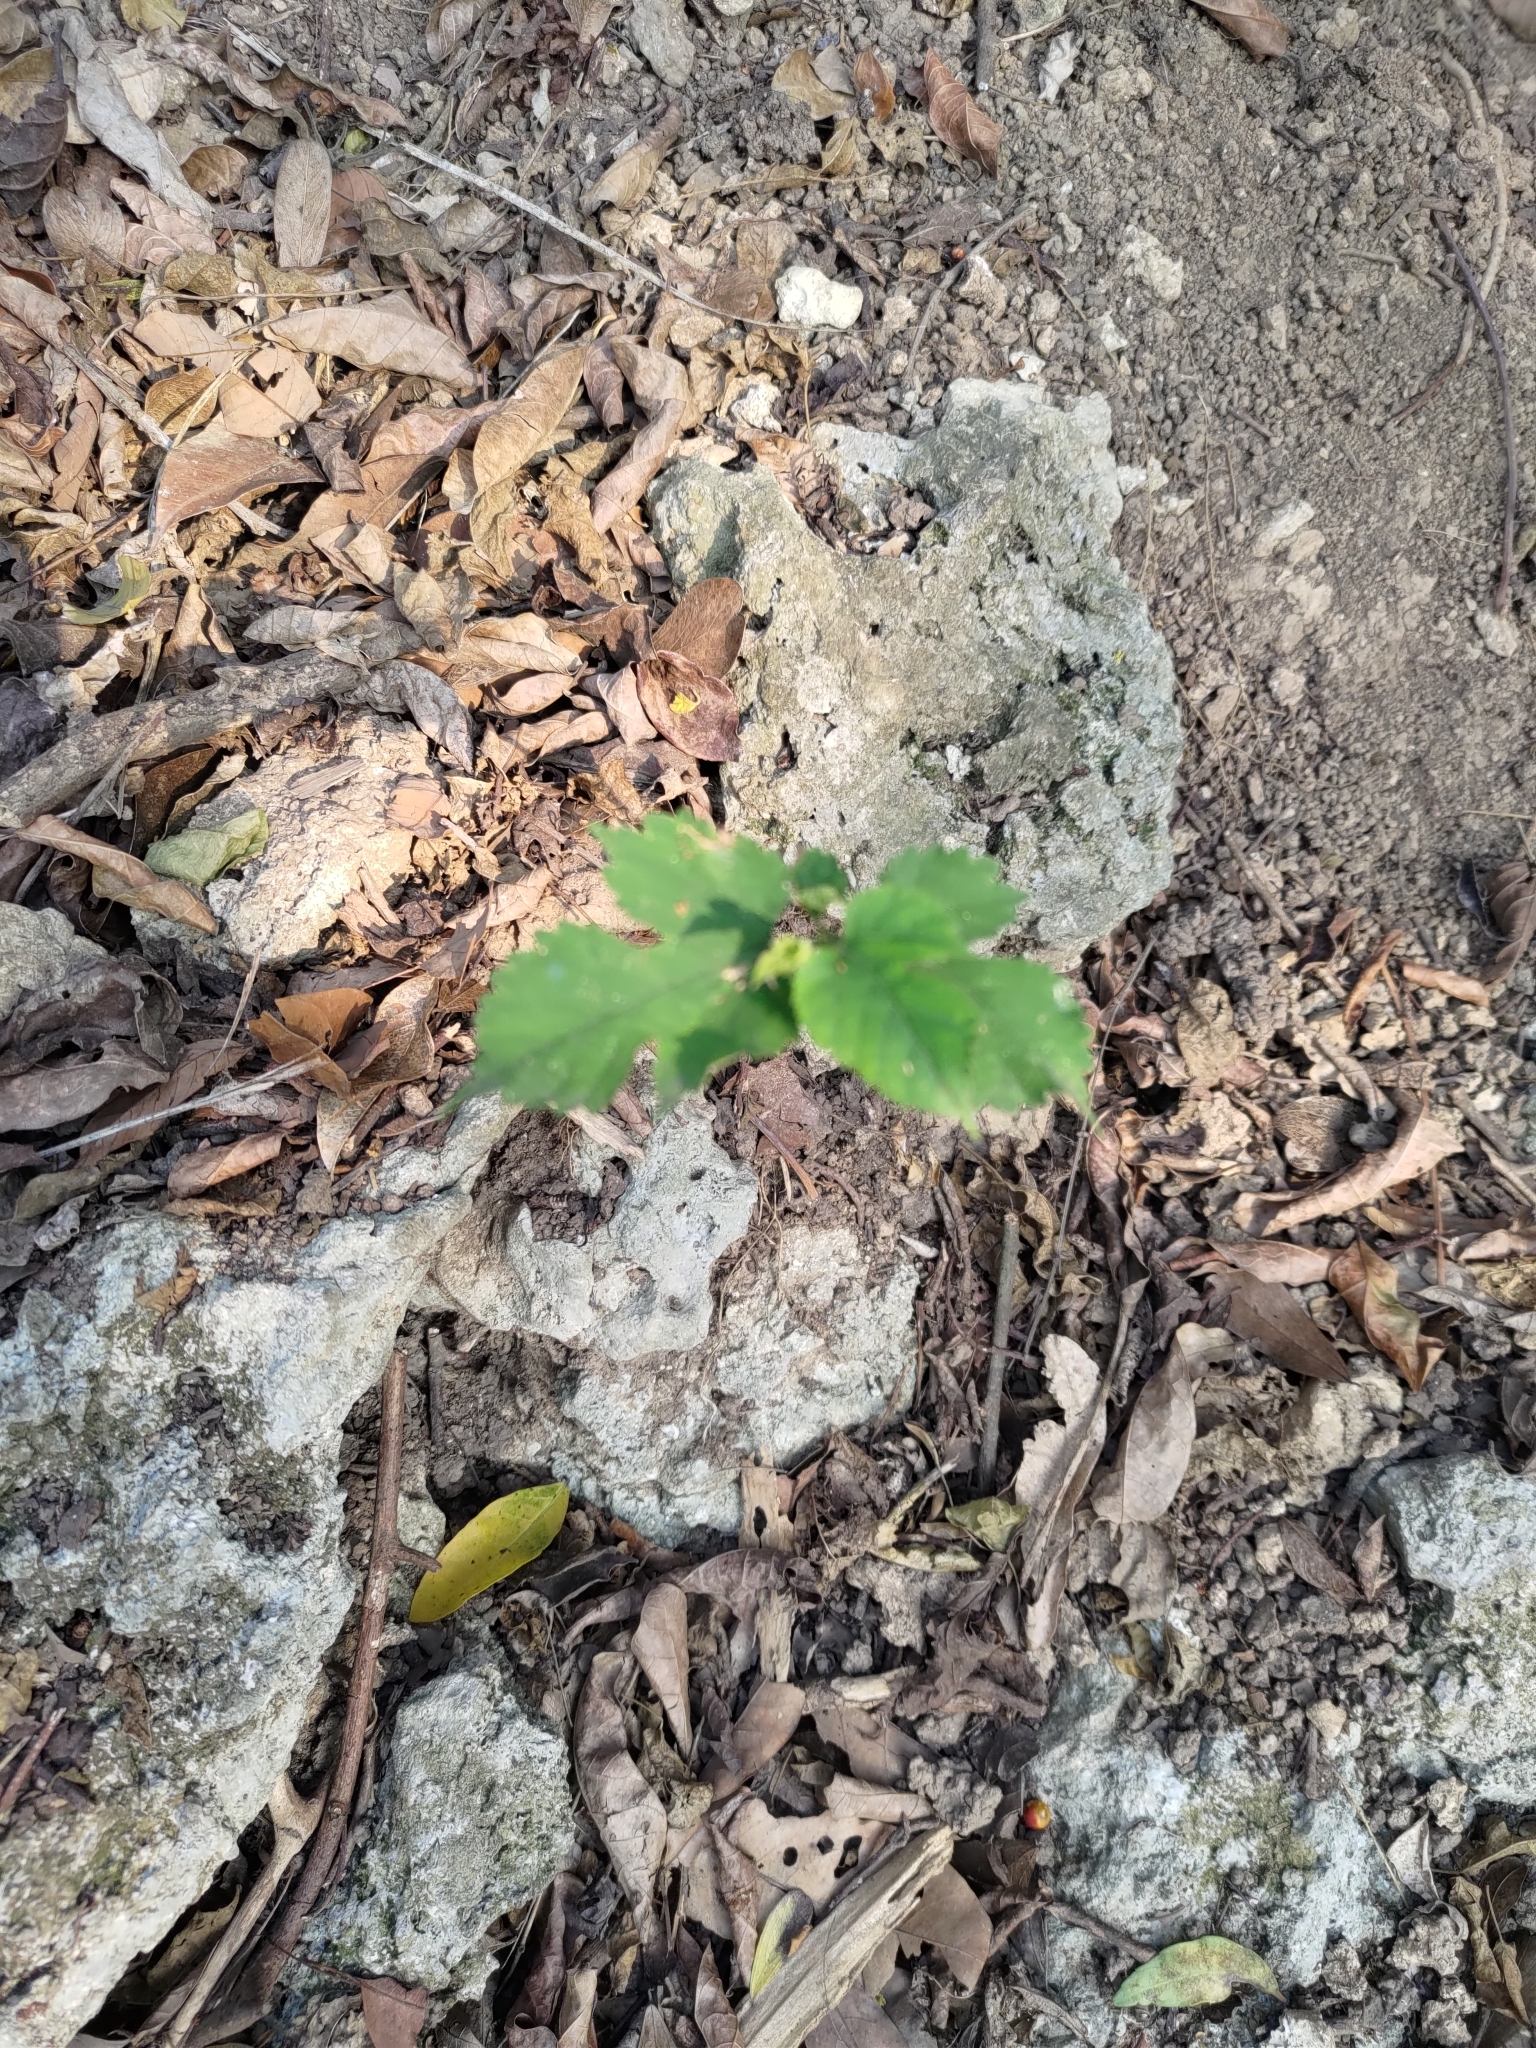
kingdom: Plantae
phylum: Tracheophyta
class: Magnoliopsida
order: Rosales
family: Moraceae
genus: Broussonetia
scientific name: Broussonetia papyrifera
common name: Paper mulberry
